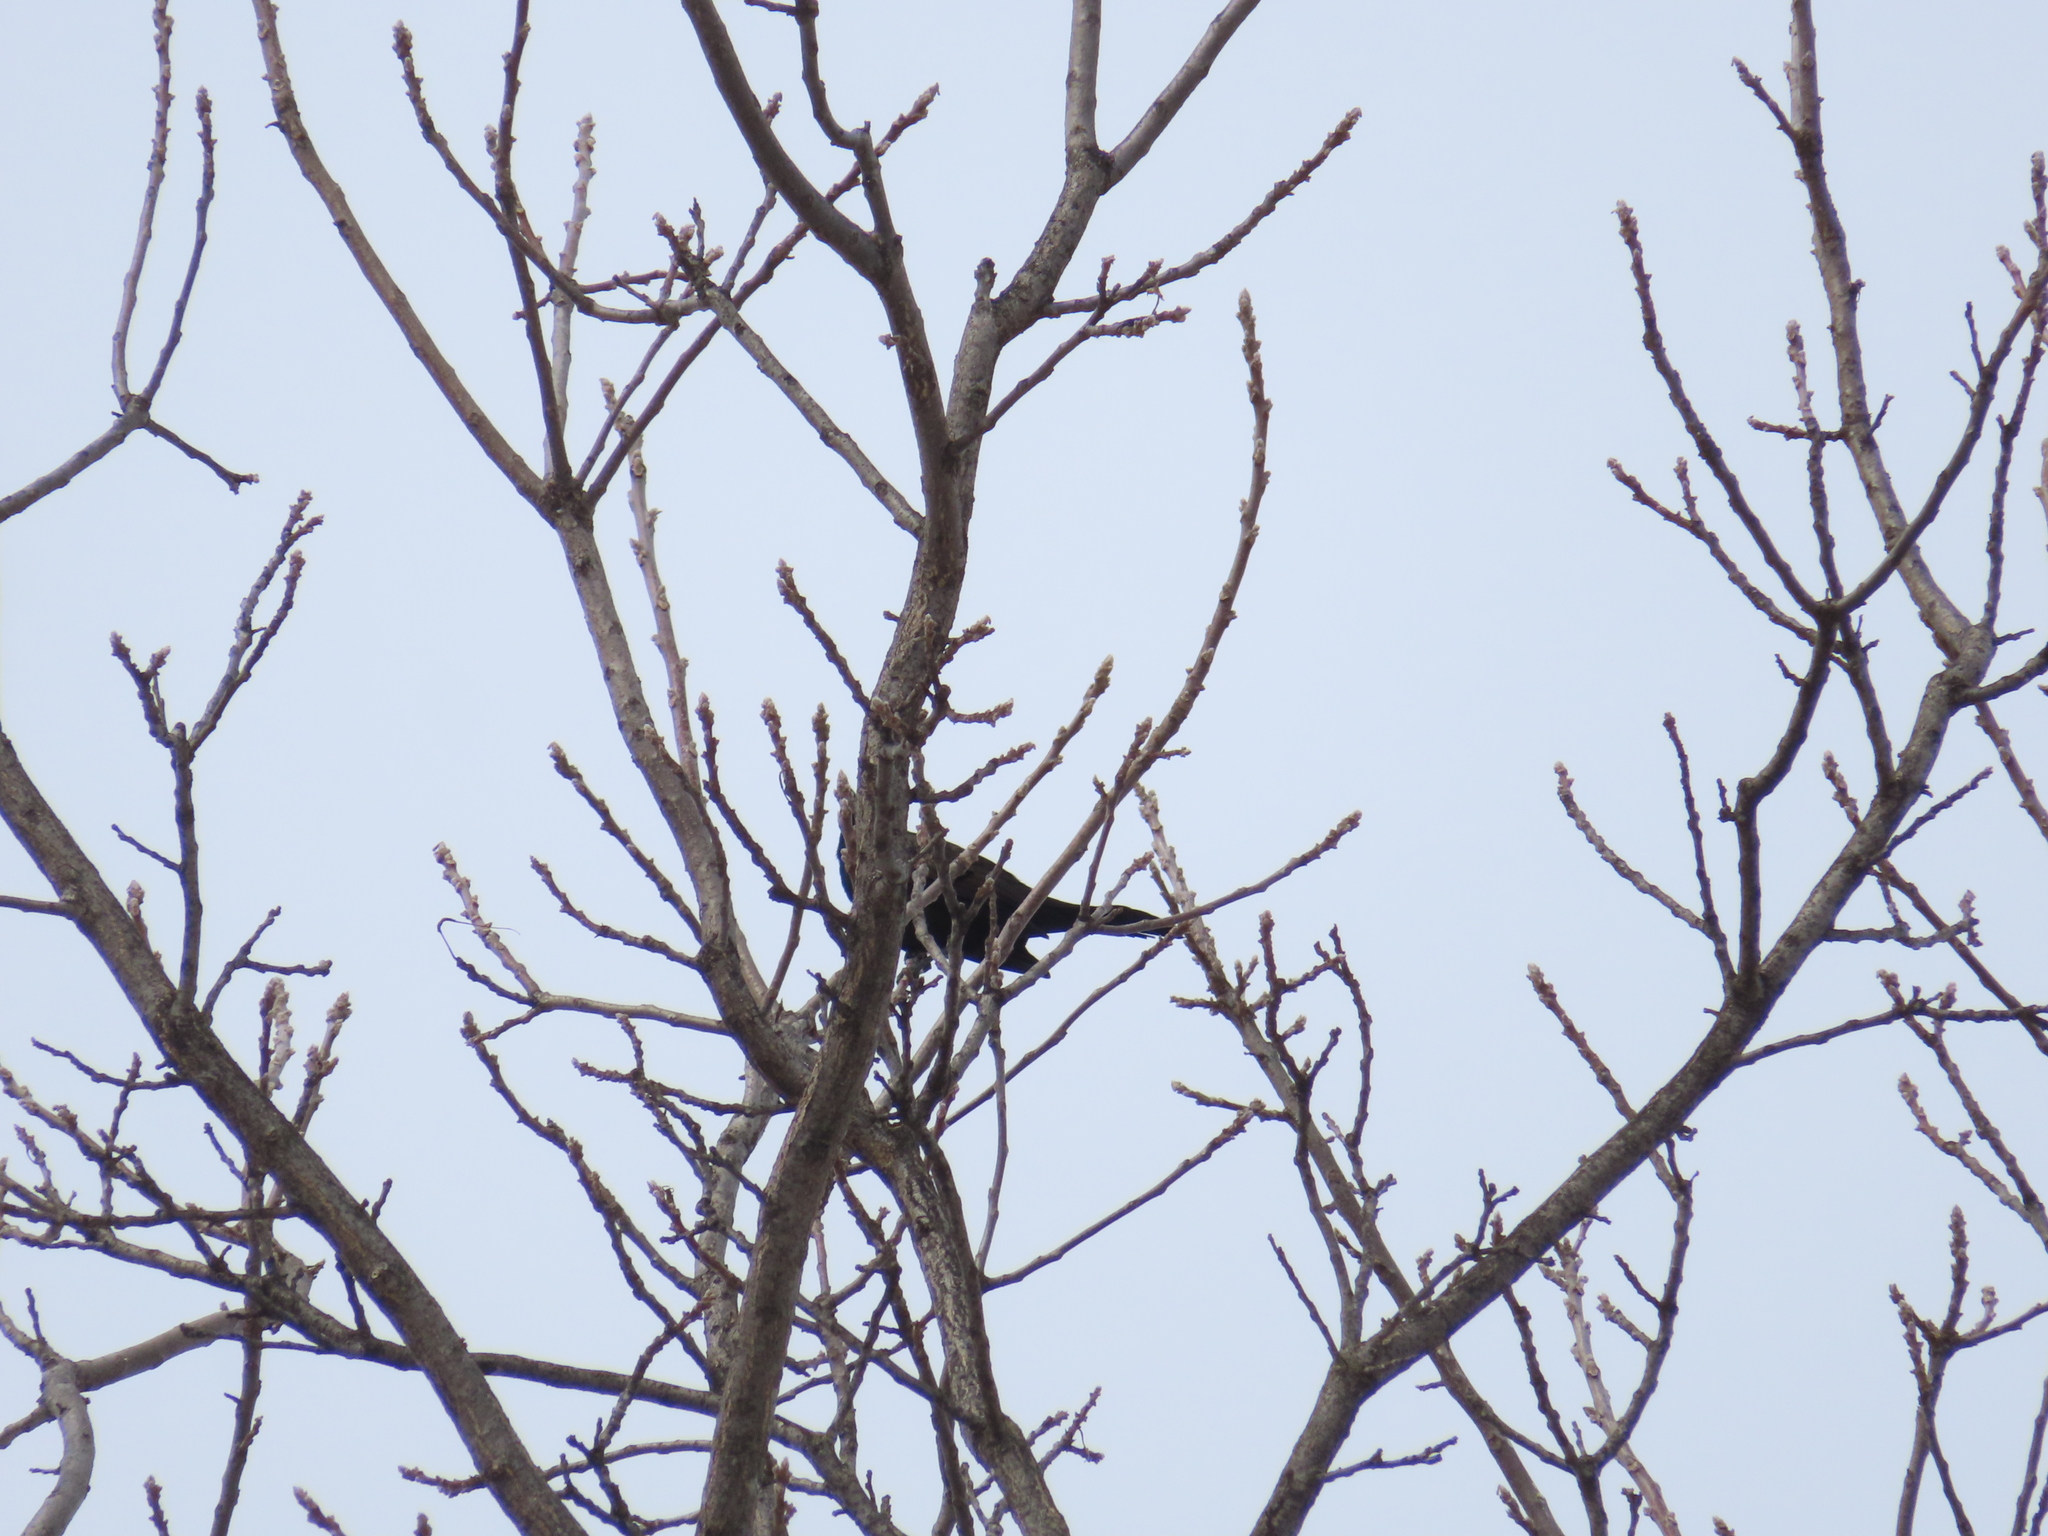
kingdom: Animalia
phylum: Chordata
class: Aves
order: Passeriformes
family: Icteridae
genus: Quiscalus
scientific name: Quiscalus quiscula
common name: Common grackle
